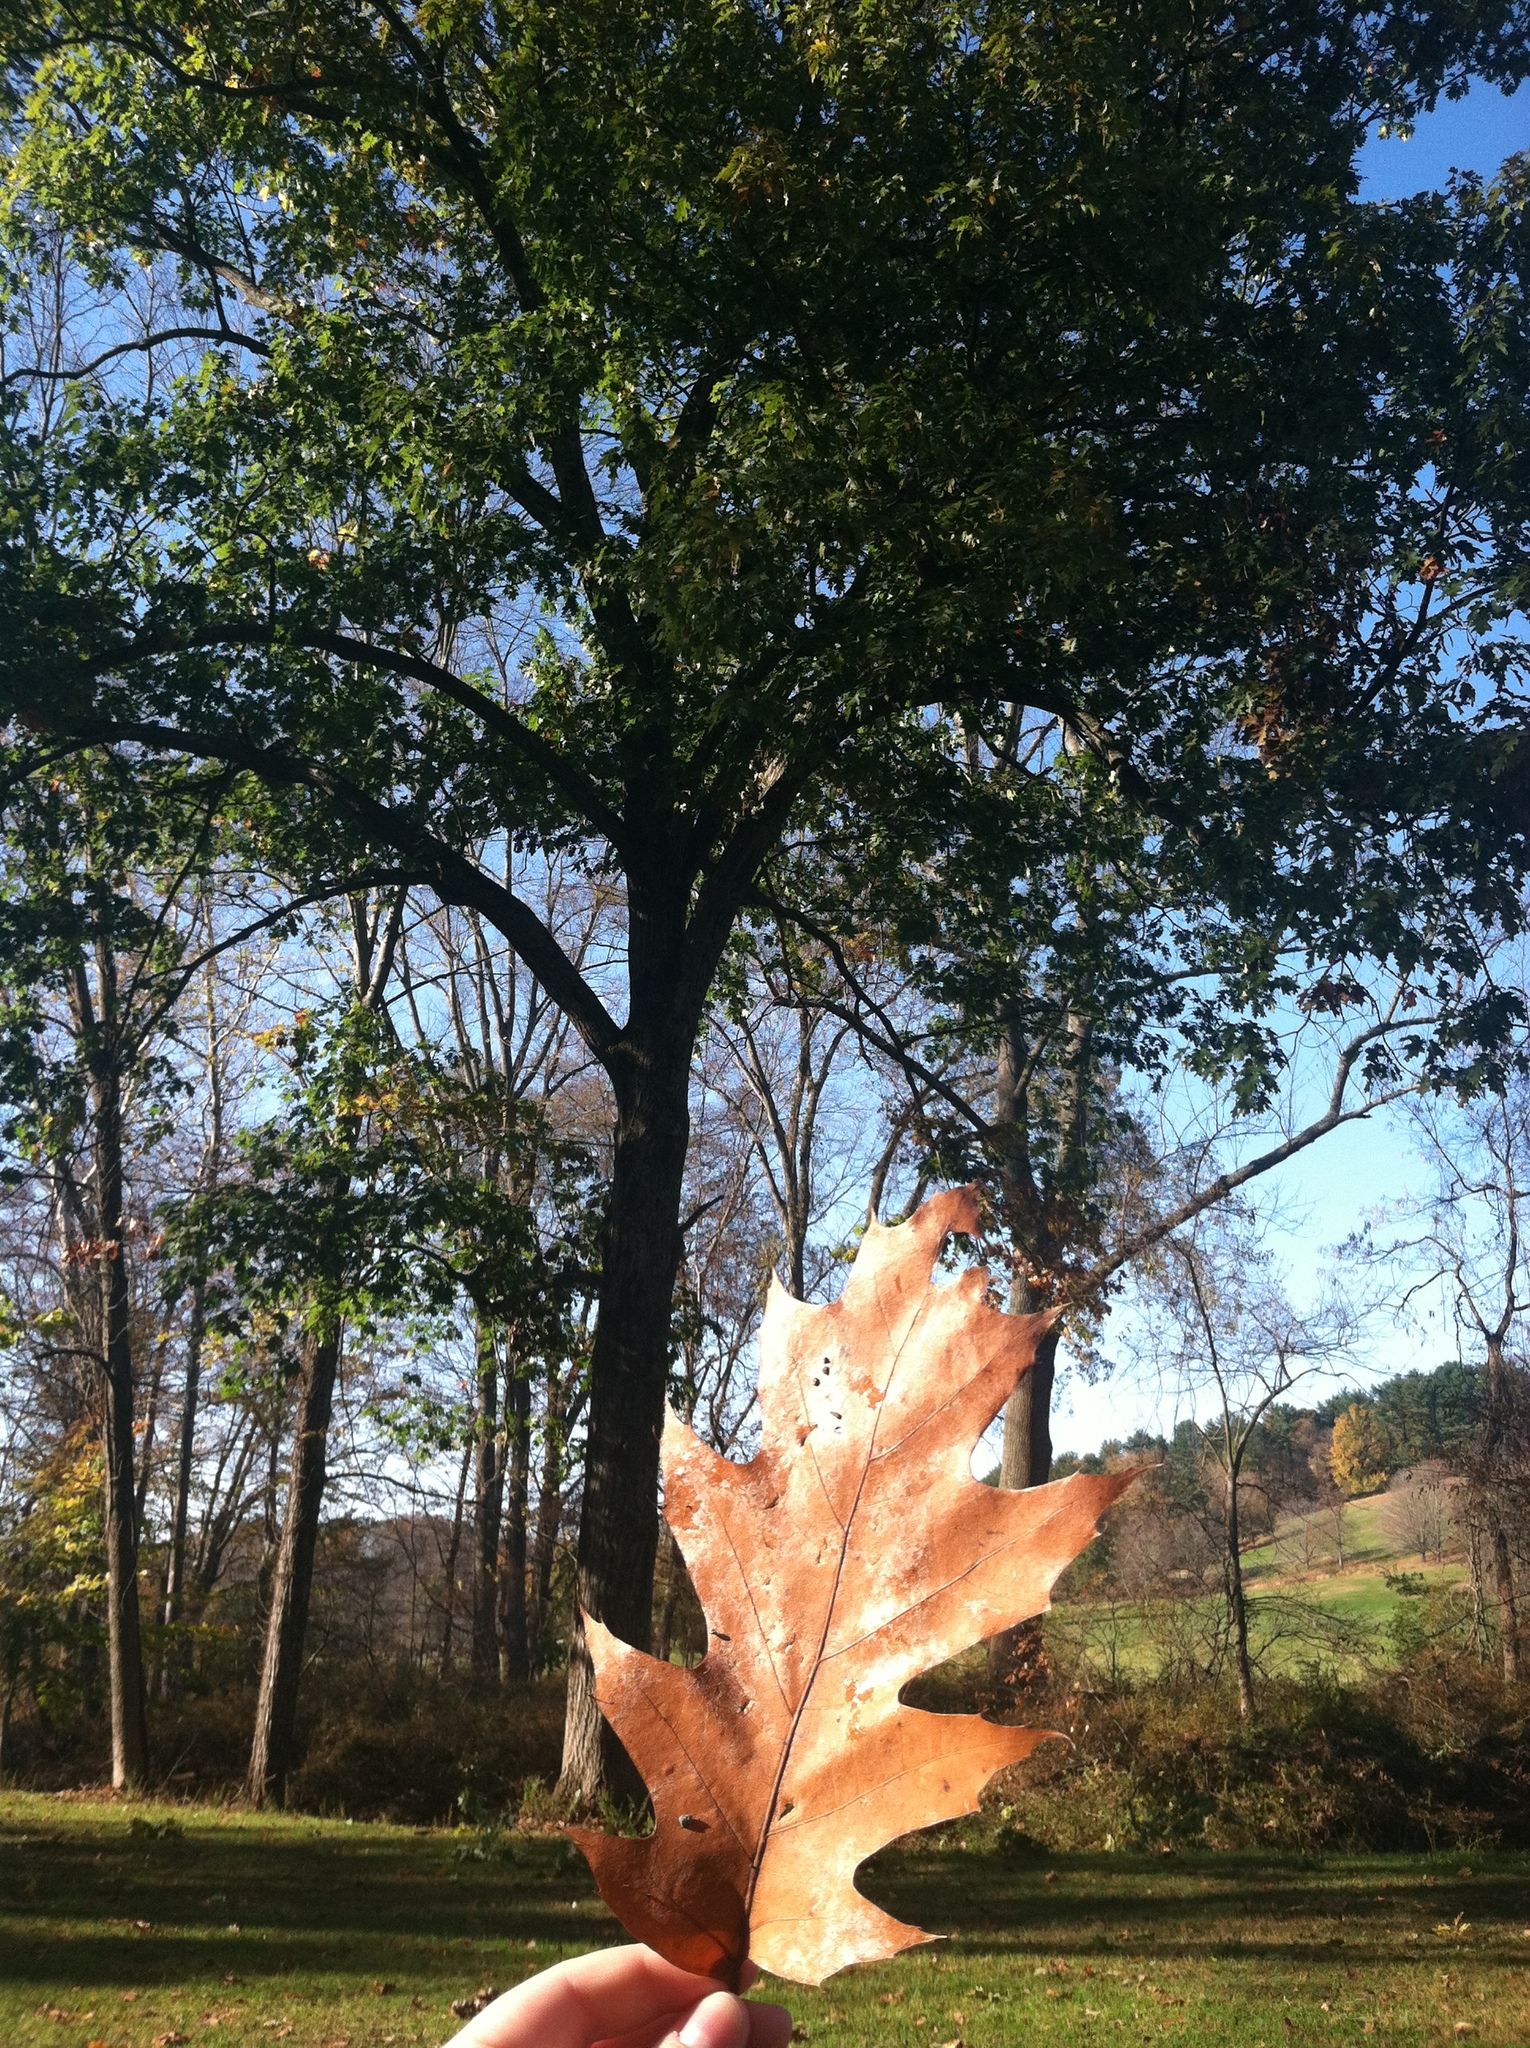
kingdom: Plantae
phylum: Tracheophyta
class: Magnoliopsida
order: Fagales
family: Fagaceae
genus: Quercus
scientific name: Quercus rubra
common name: Red oak
